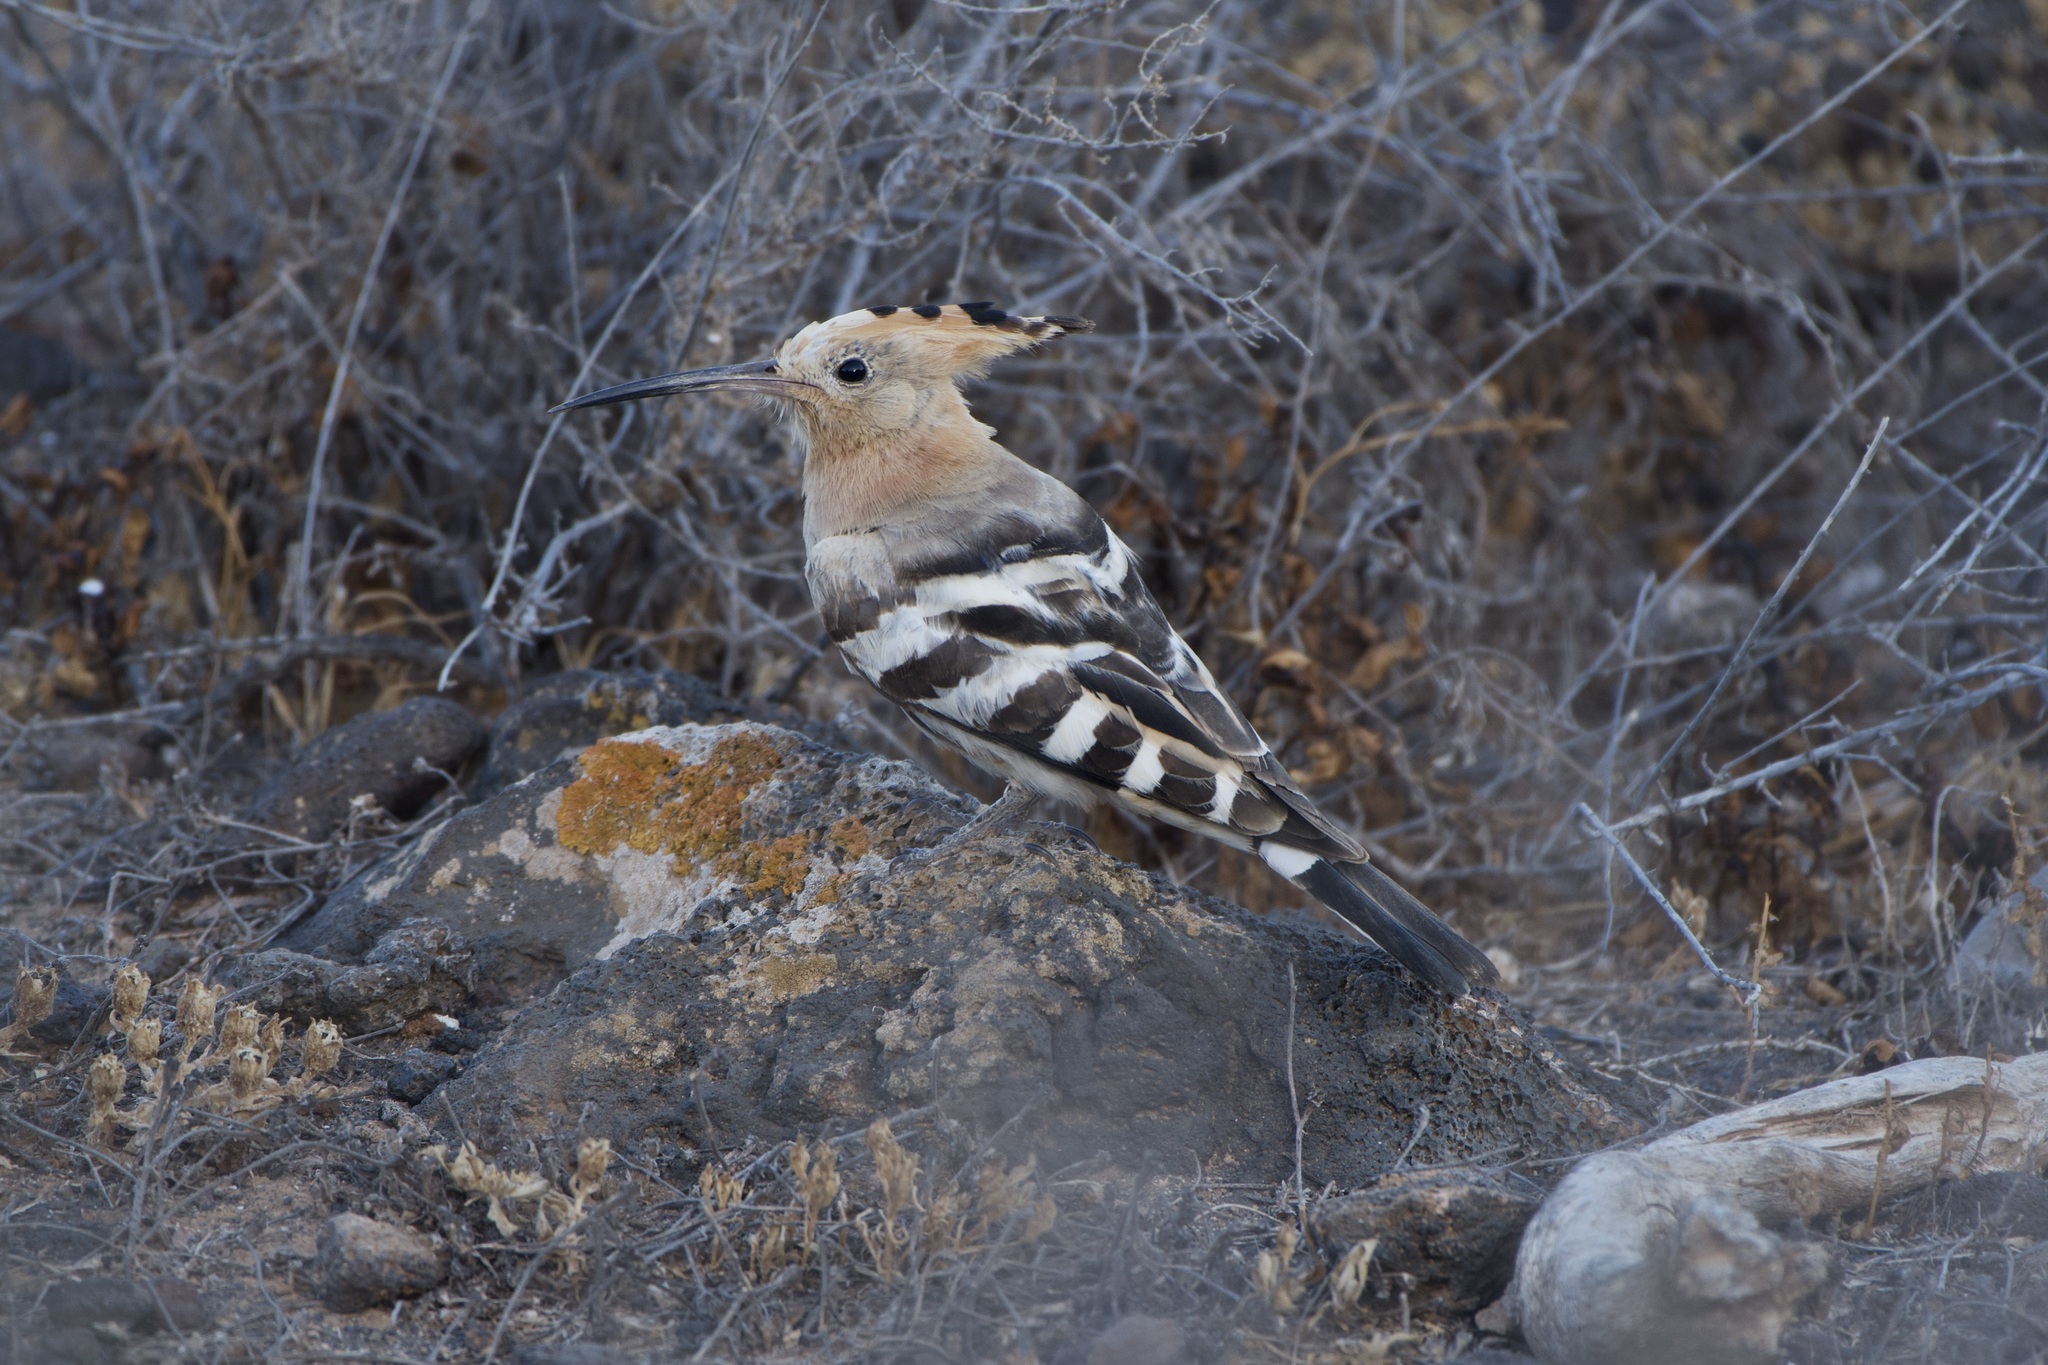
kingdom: Animalia
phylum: Chordata
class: Aves
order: Bucerotiformes
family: Upupidae
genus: Upupa
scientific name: Upupa epops
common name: Eurasian hoopoe
